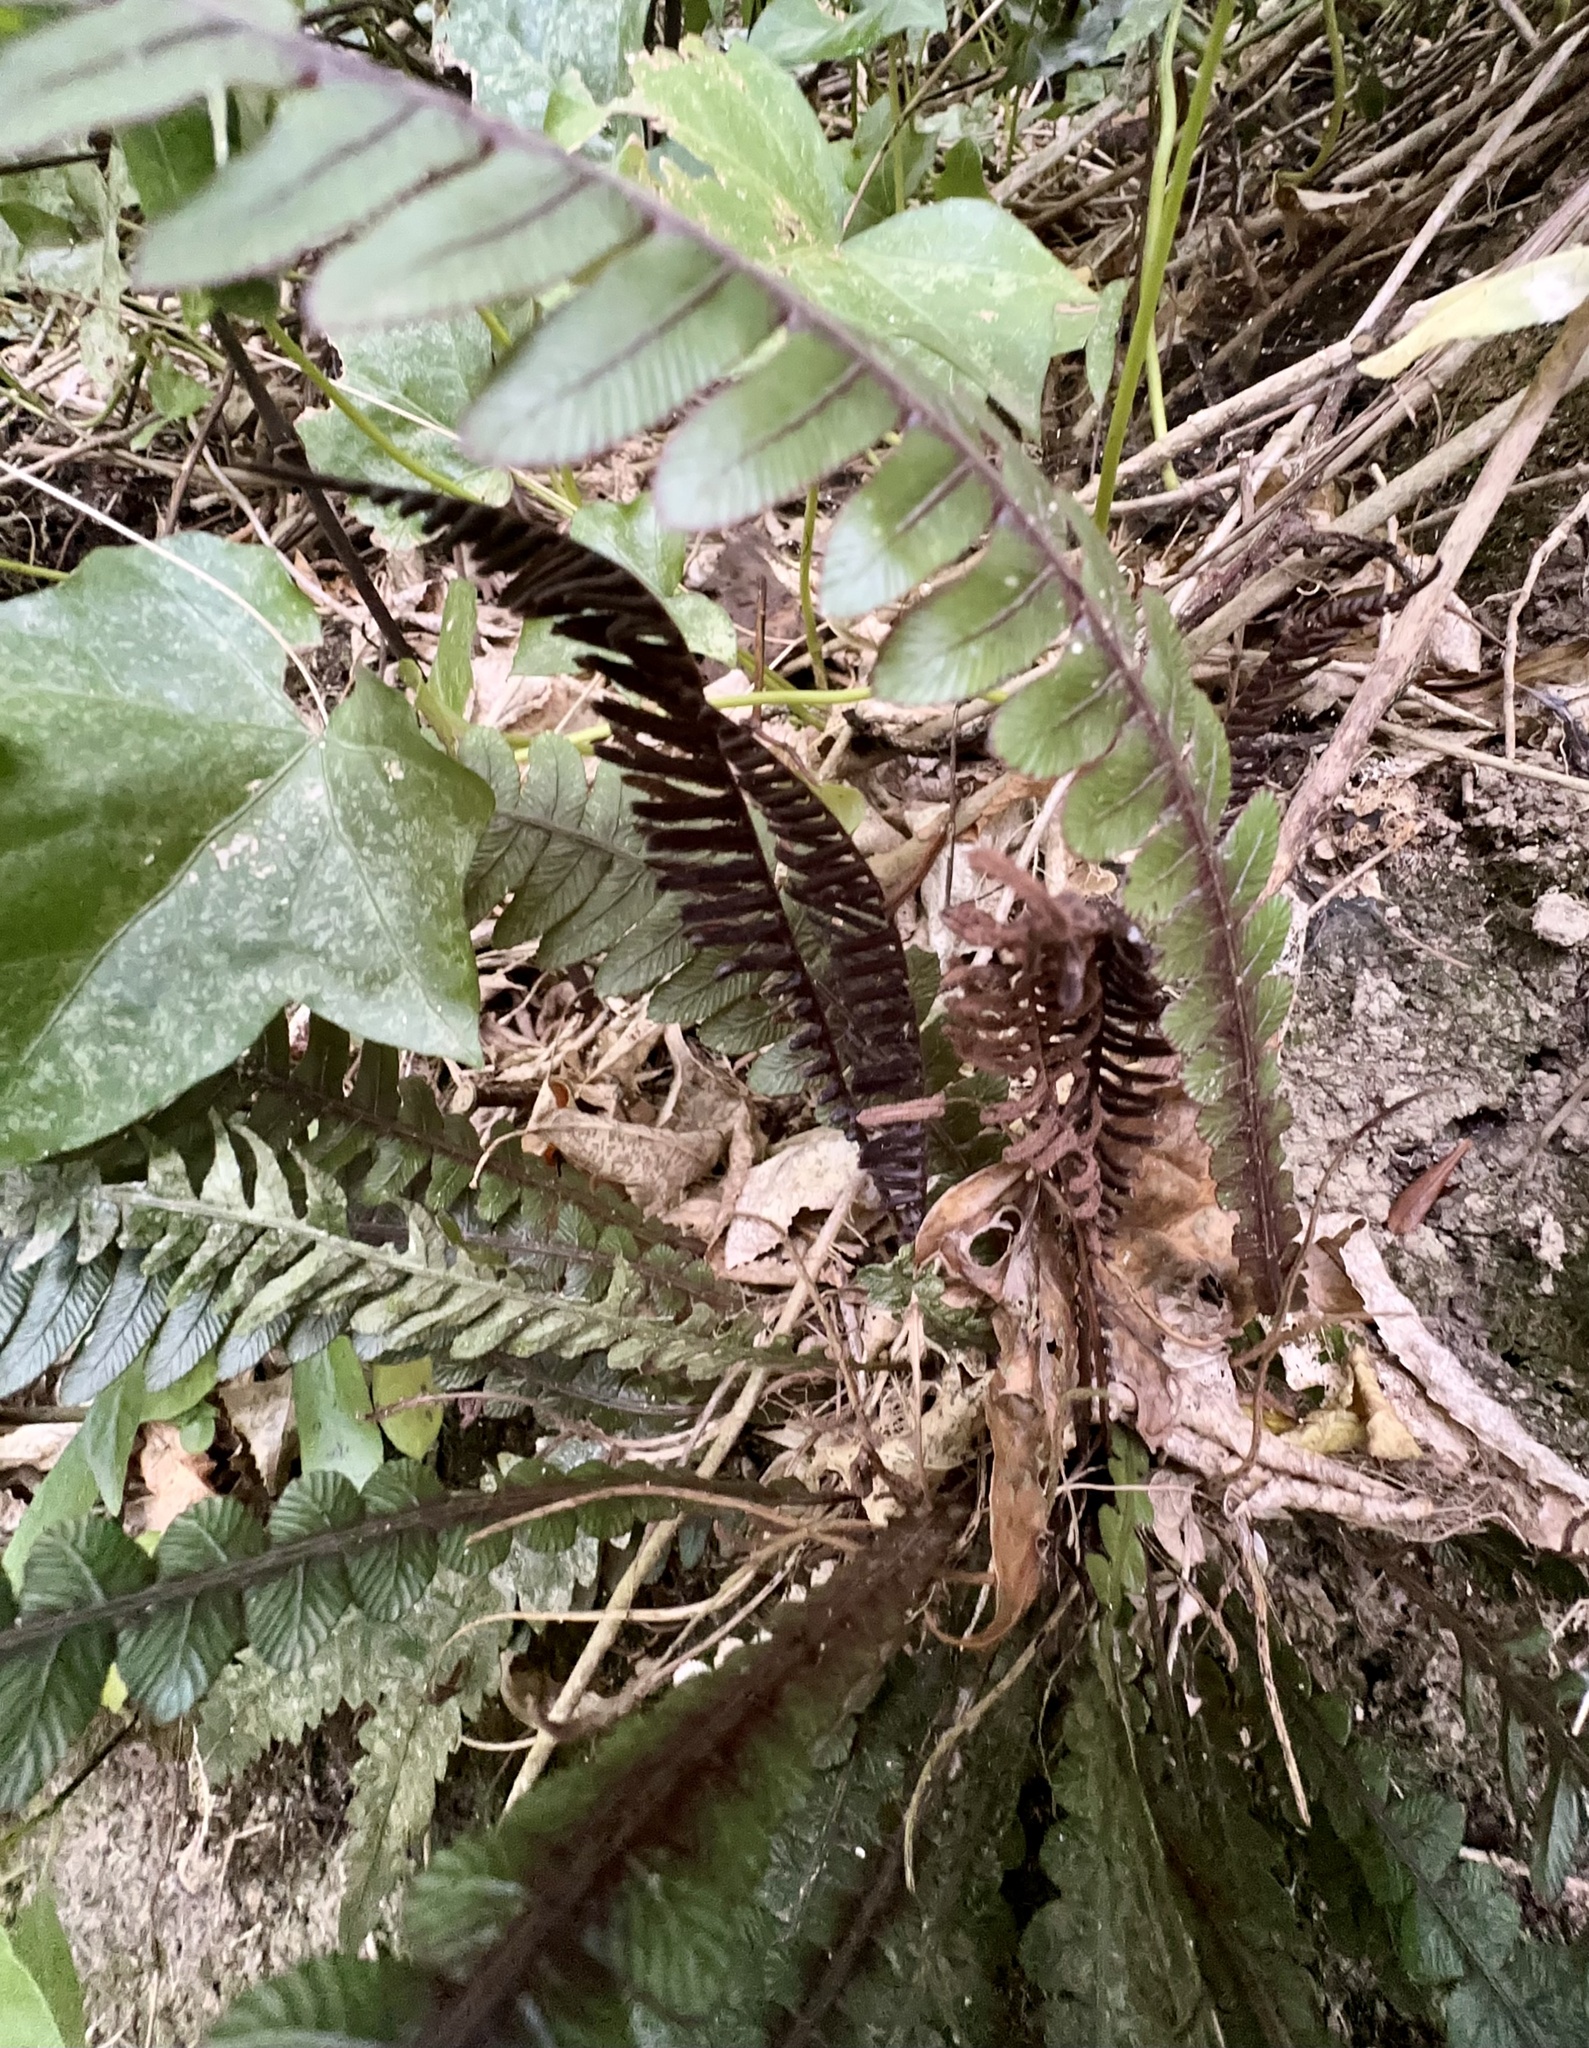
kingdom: Plantae
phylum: Tracheophyta
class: Polypodiopsida
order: Polypodiales
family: Blechnaceae
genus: Austroblechnum
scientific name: Austroblechnum lanceolatum
